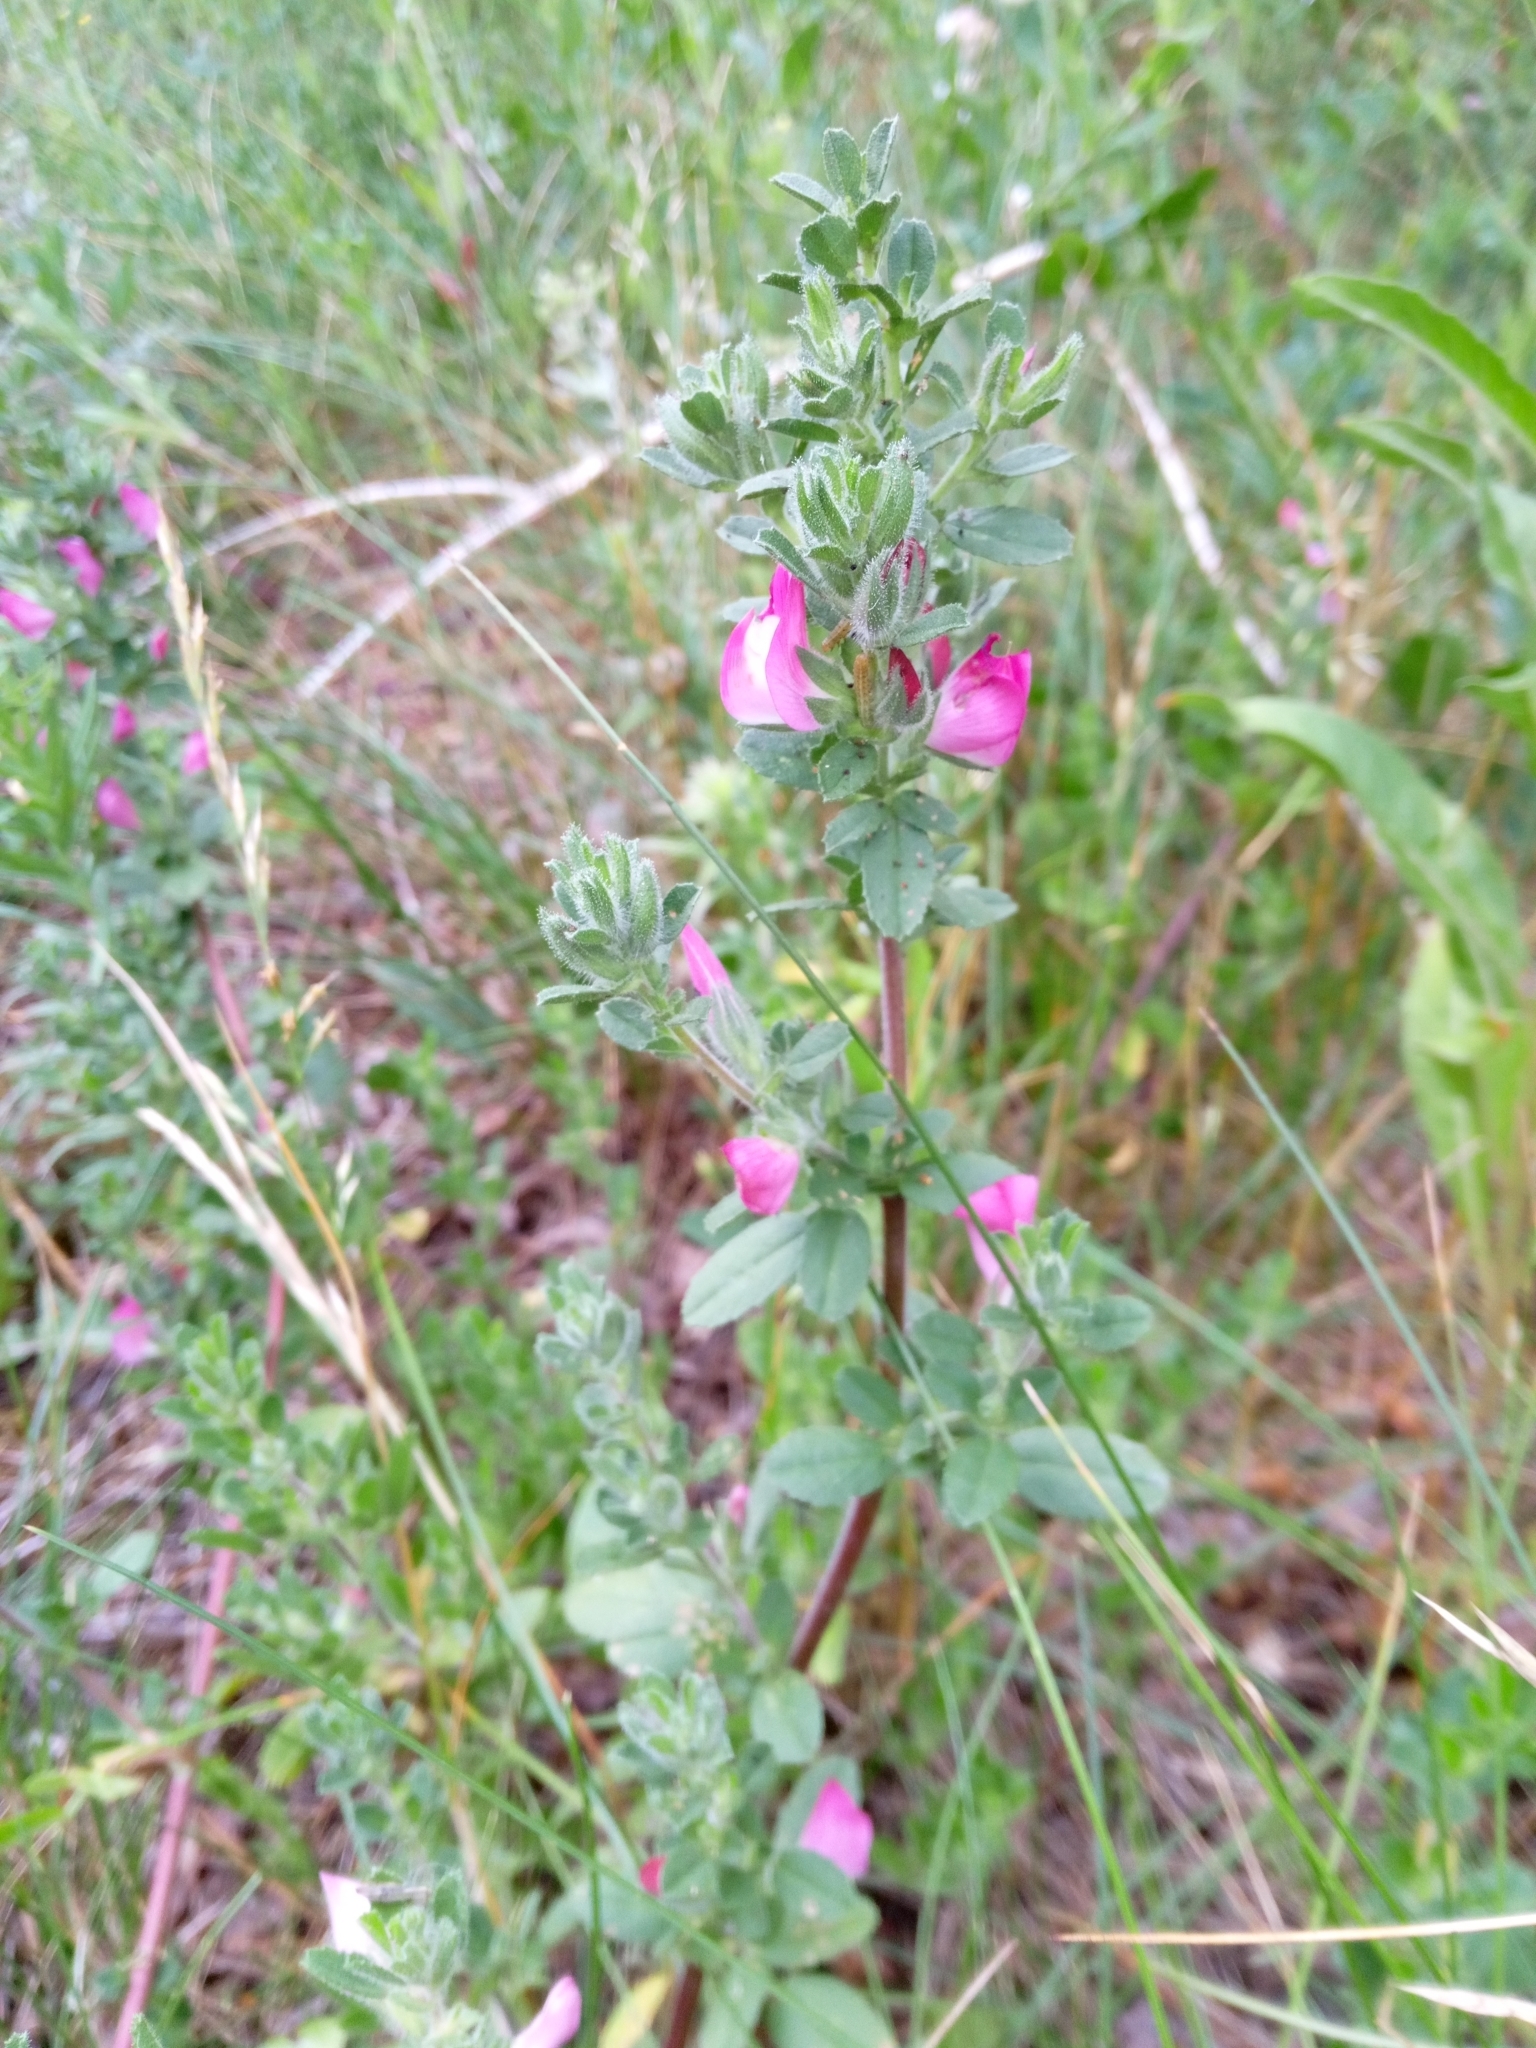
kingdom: Plantae
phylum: Tracheophyta
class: Magnoliopsida
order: Fabales
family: Fabaceae
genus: Ononis
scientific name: Ononis arvensis
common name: Field restharrow
